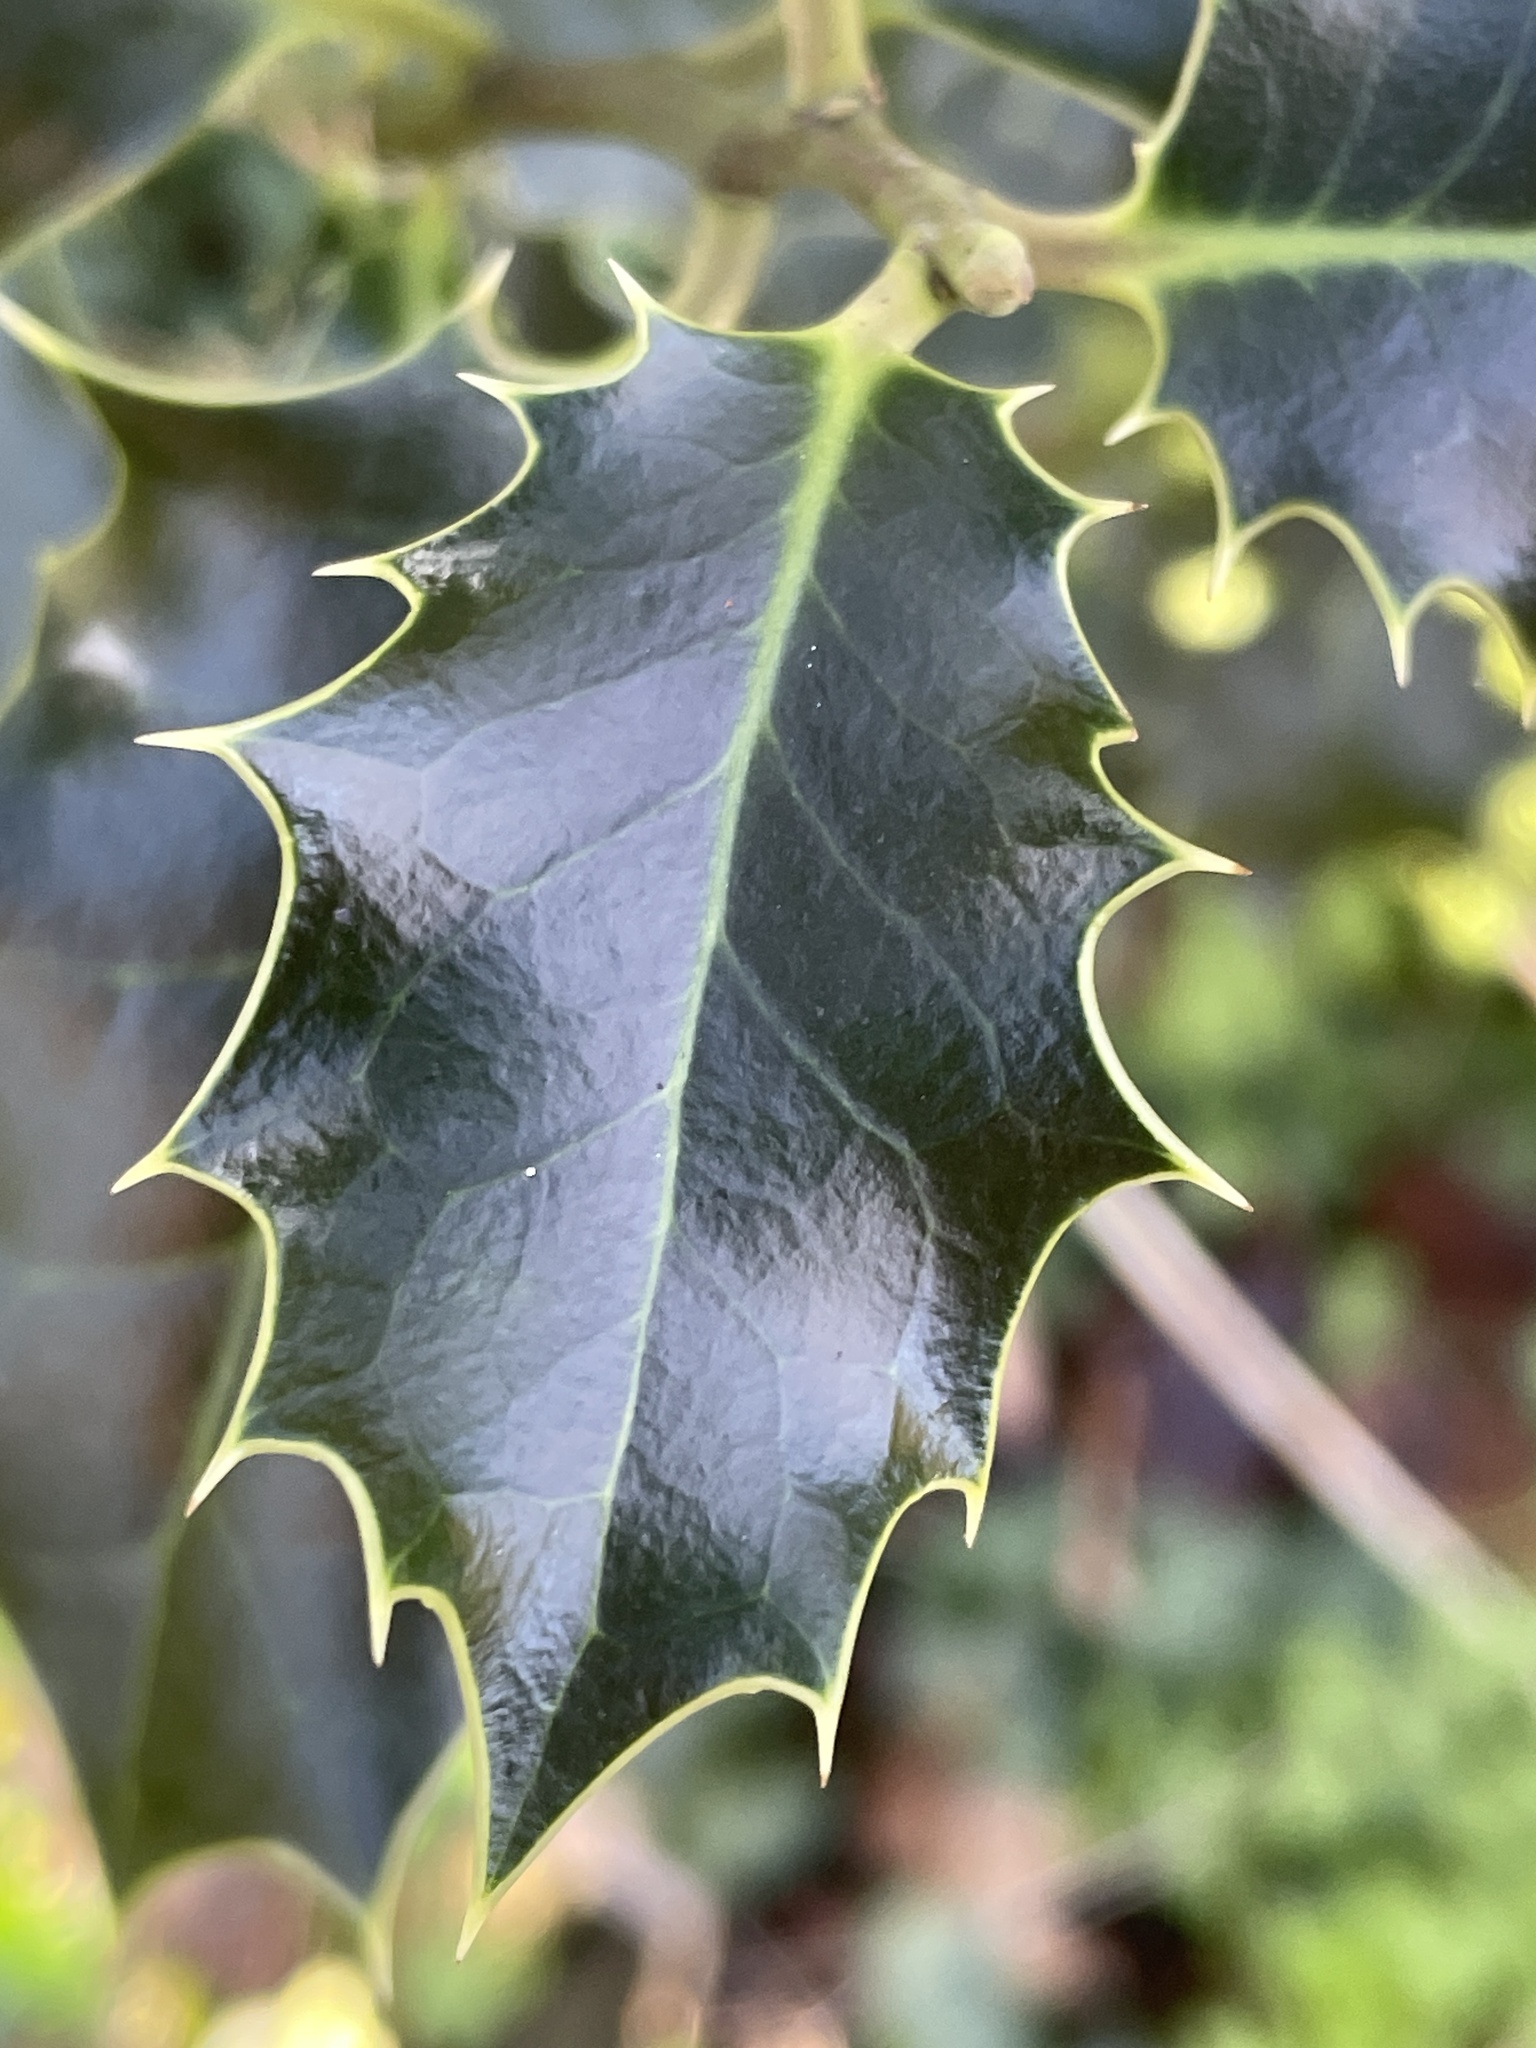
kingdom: Plantae
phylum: Tracheophyta
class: Magnoliopsida
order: Aquifoliales
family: Aquifoliaceae
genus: Ilex
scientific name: Ilex aquifolium
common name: English holly
